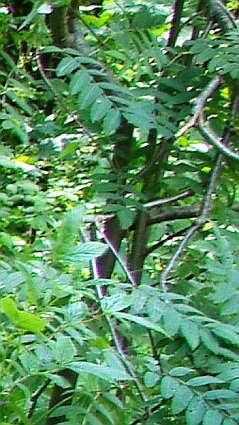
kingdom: Plantae
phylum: Tracheophyta
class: Magnoliopsida
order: Rosales
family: Rosaceae
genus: Sorbus
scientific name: Sorbus aucuparia
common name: Rowan
